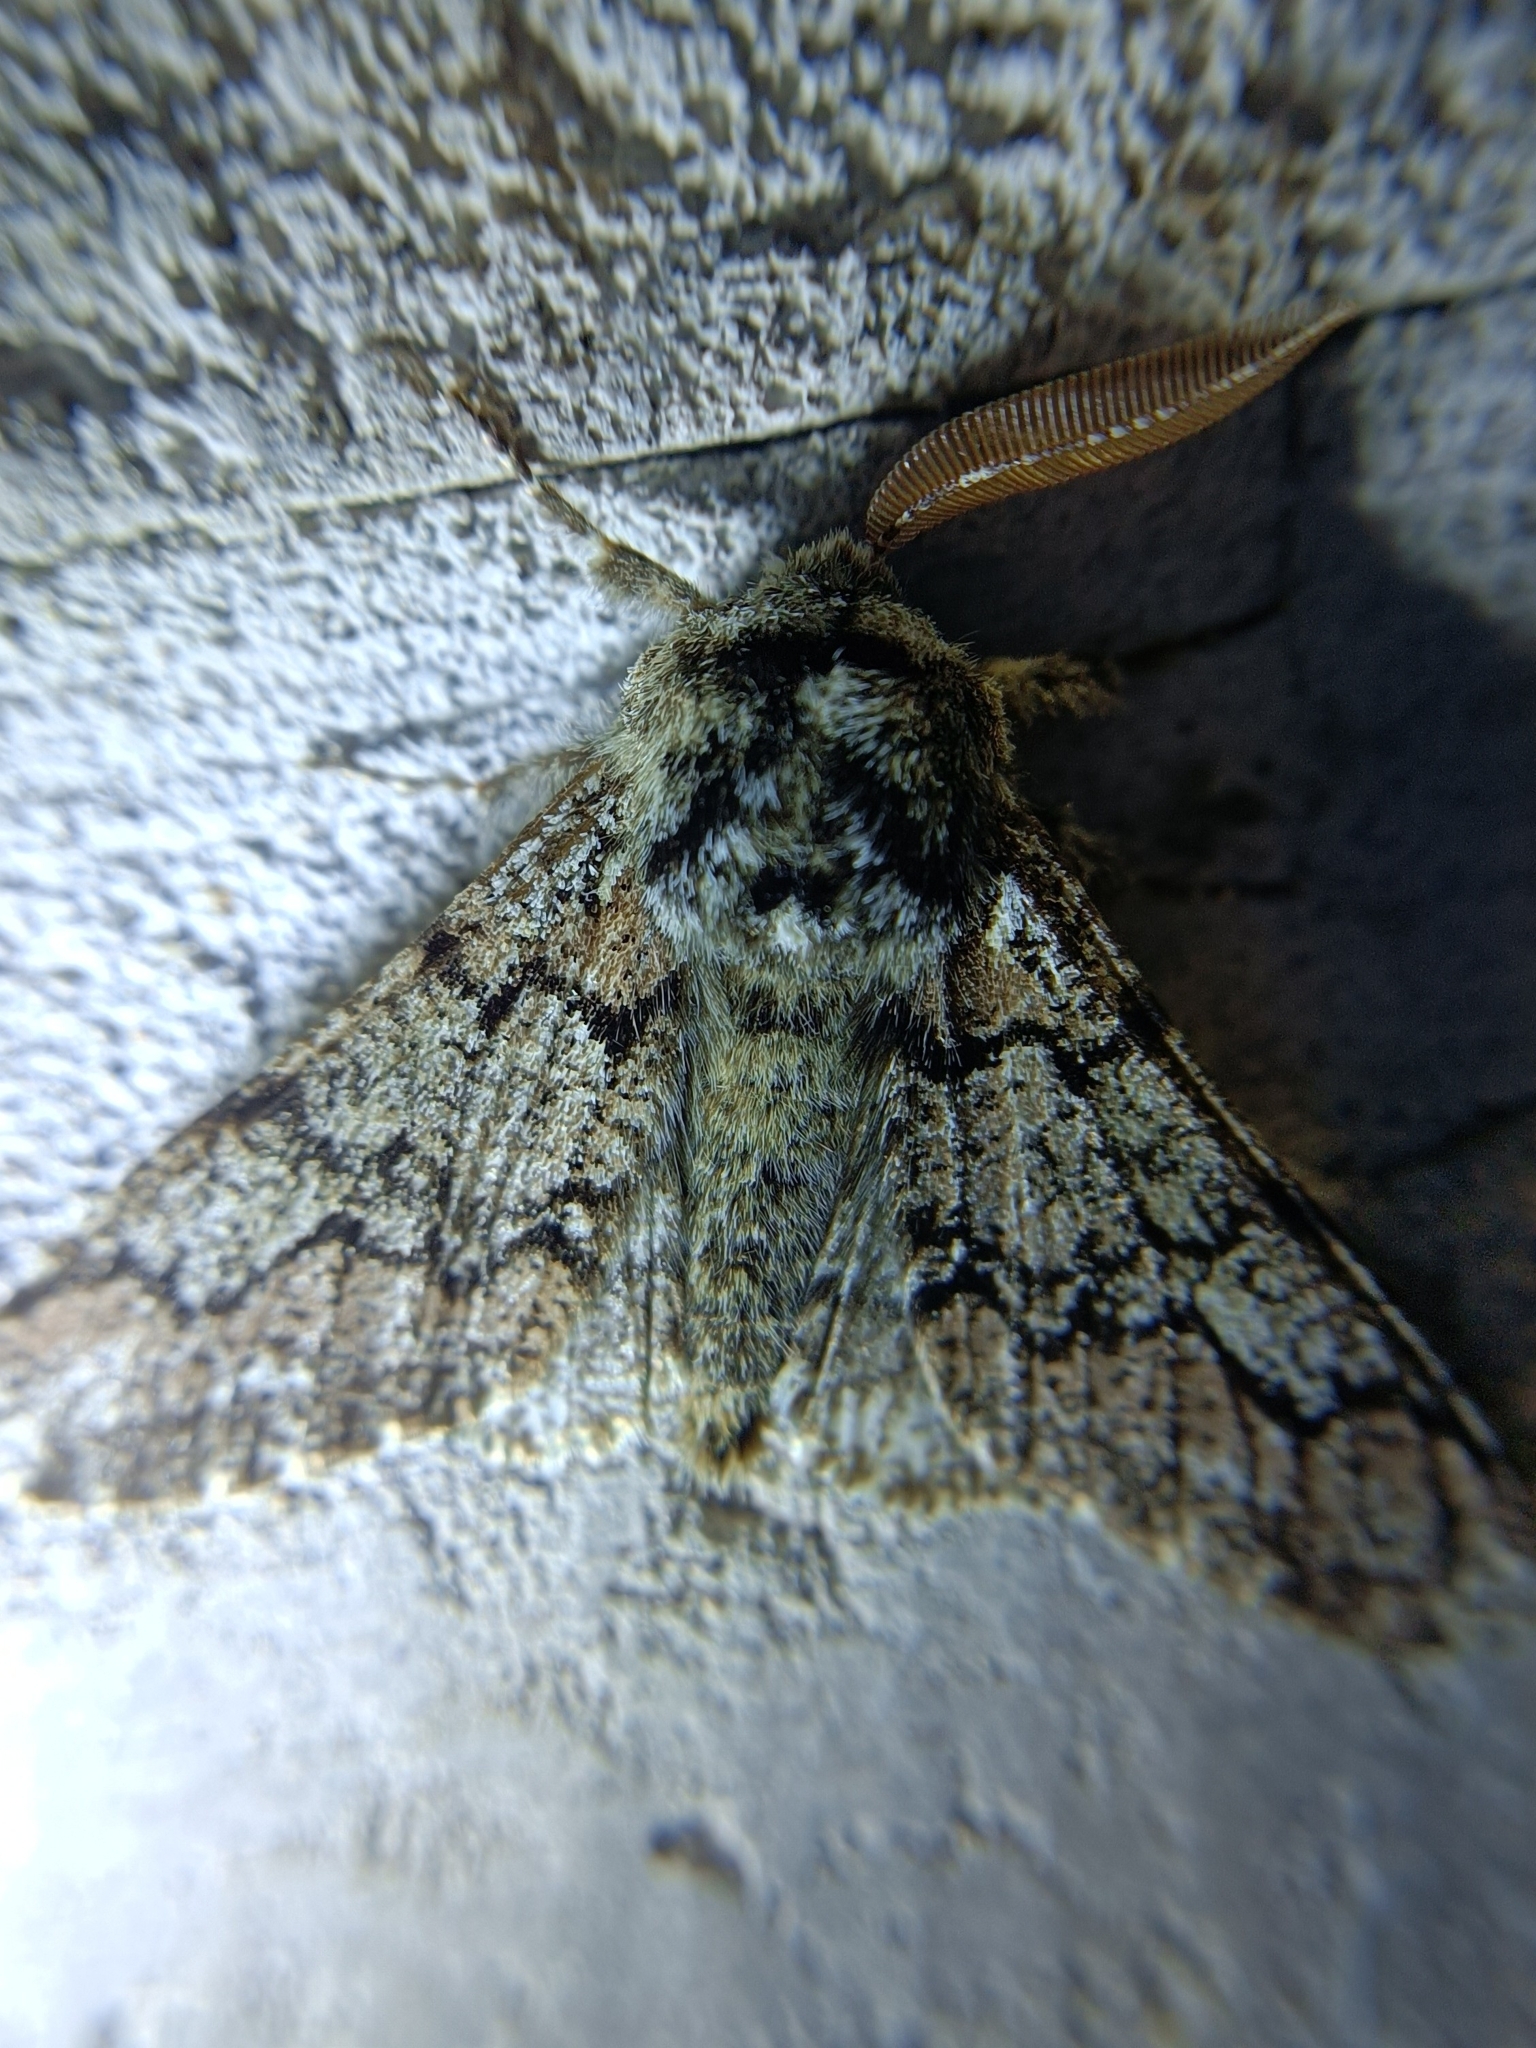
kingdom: Animalia
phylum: Arthropoda
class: Insecta
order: Lepidoptera
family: Geometridae
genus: Biston
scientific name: Biston strataria
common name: Oak beauty
